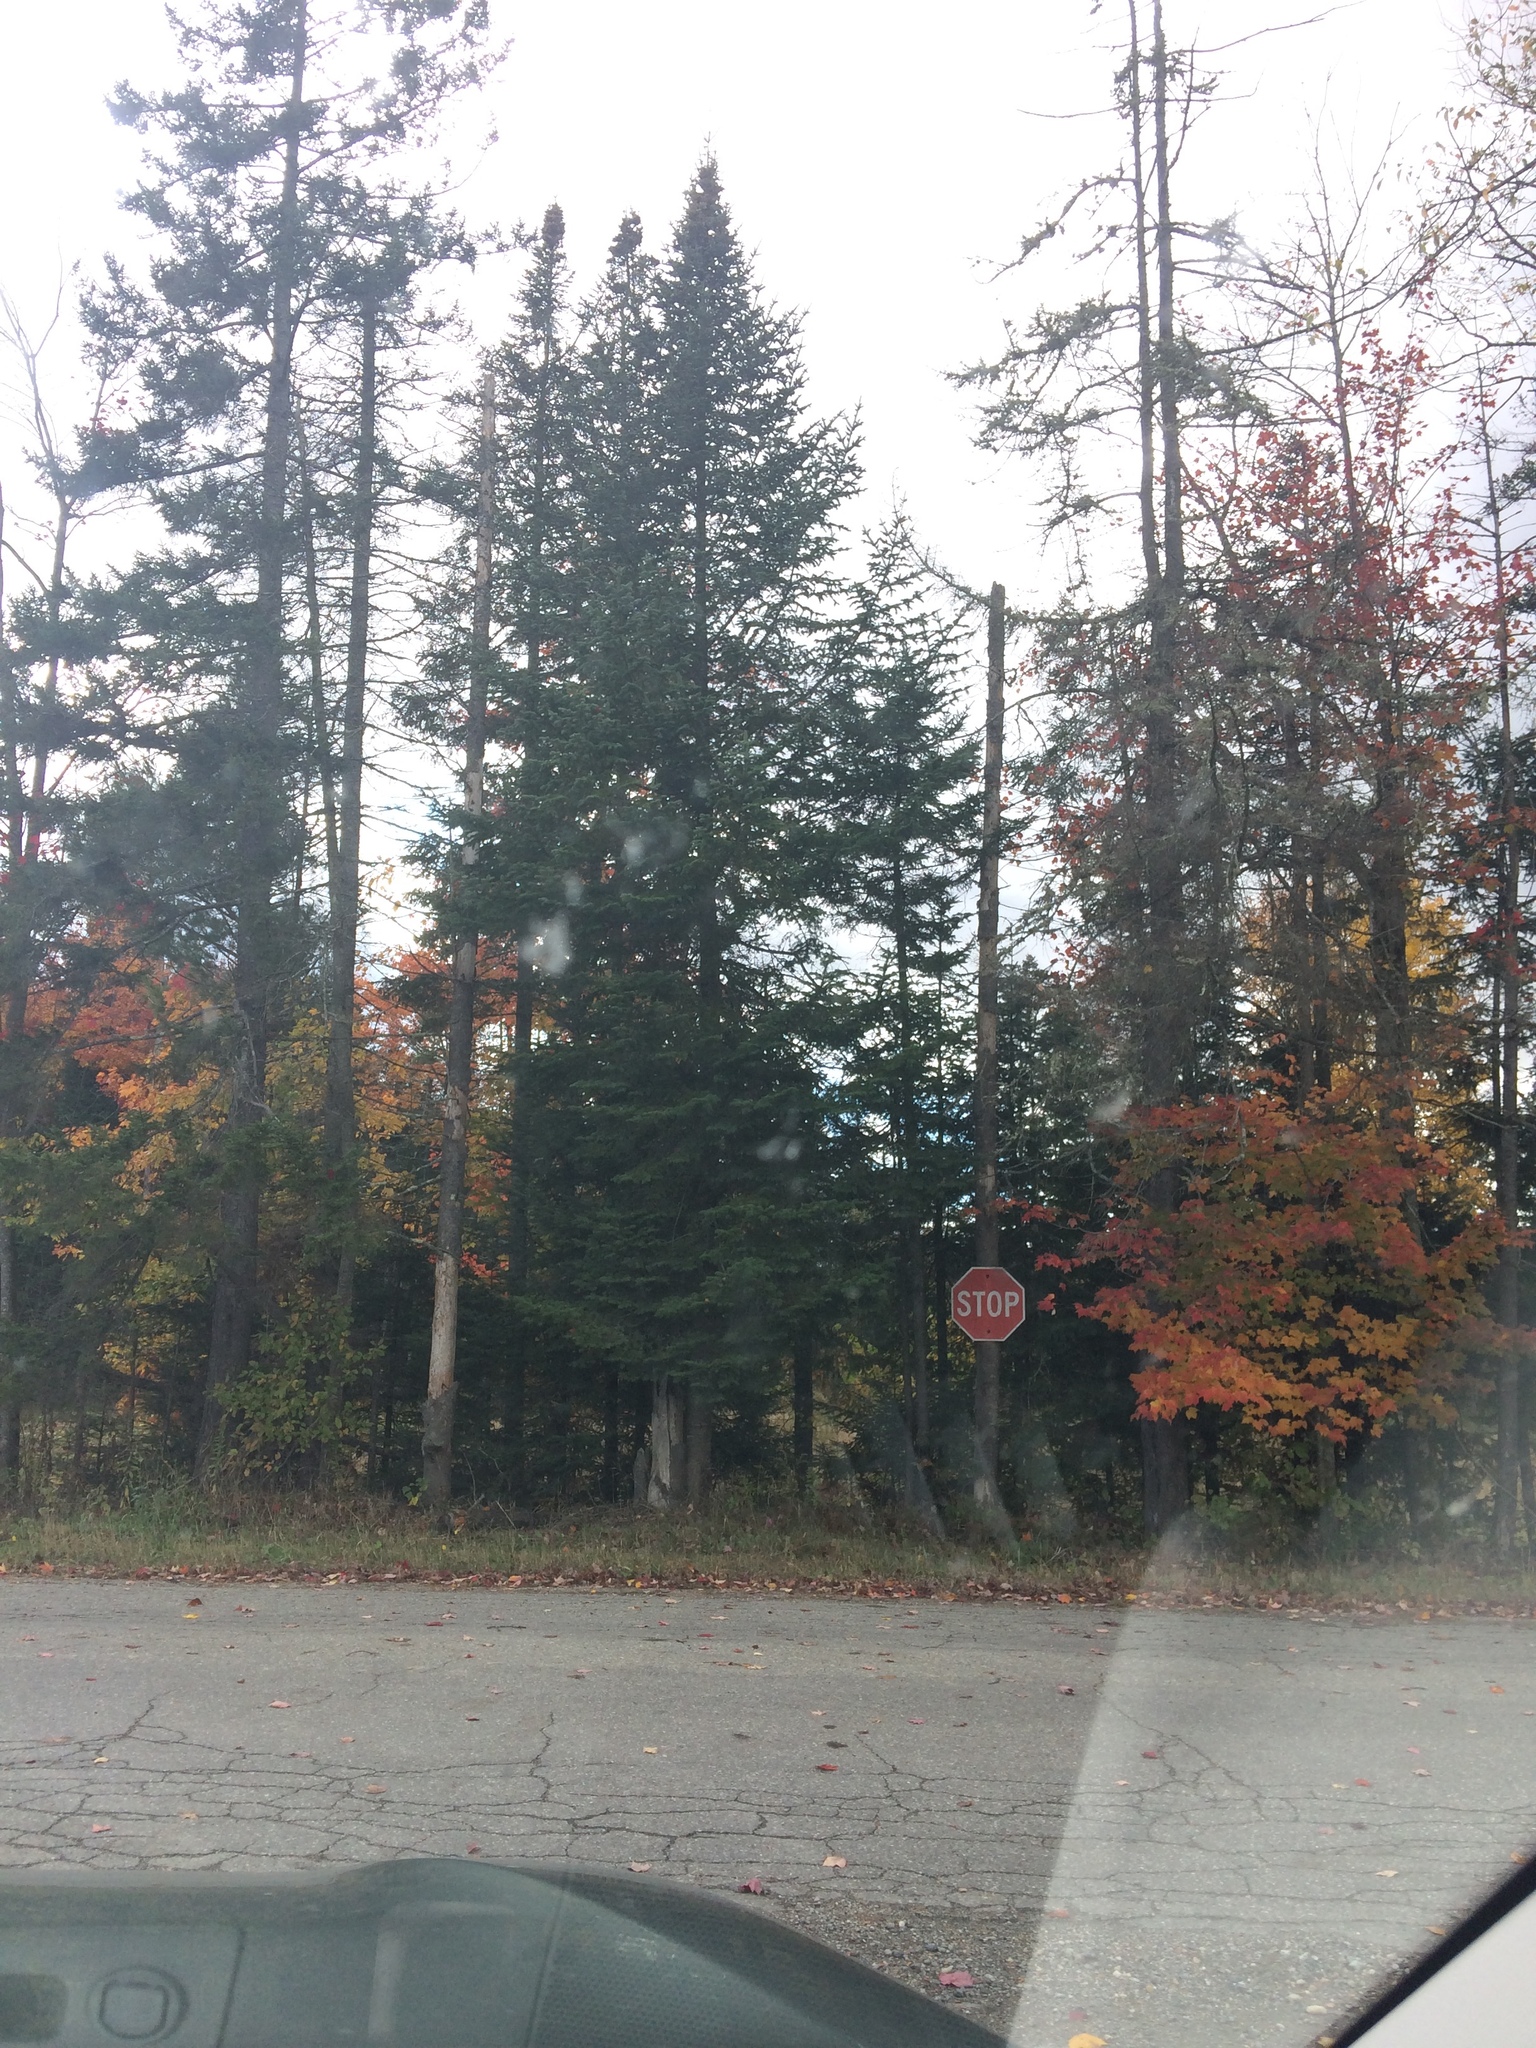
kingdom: Plantae
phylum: Tracheophyta
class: Pinopsida
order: Pinales
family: Pinaceae
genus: Abies
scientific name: Abies balsamea
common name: Balsam fir
